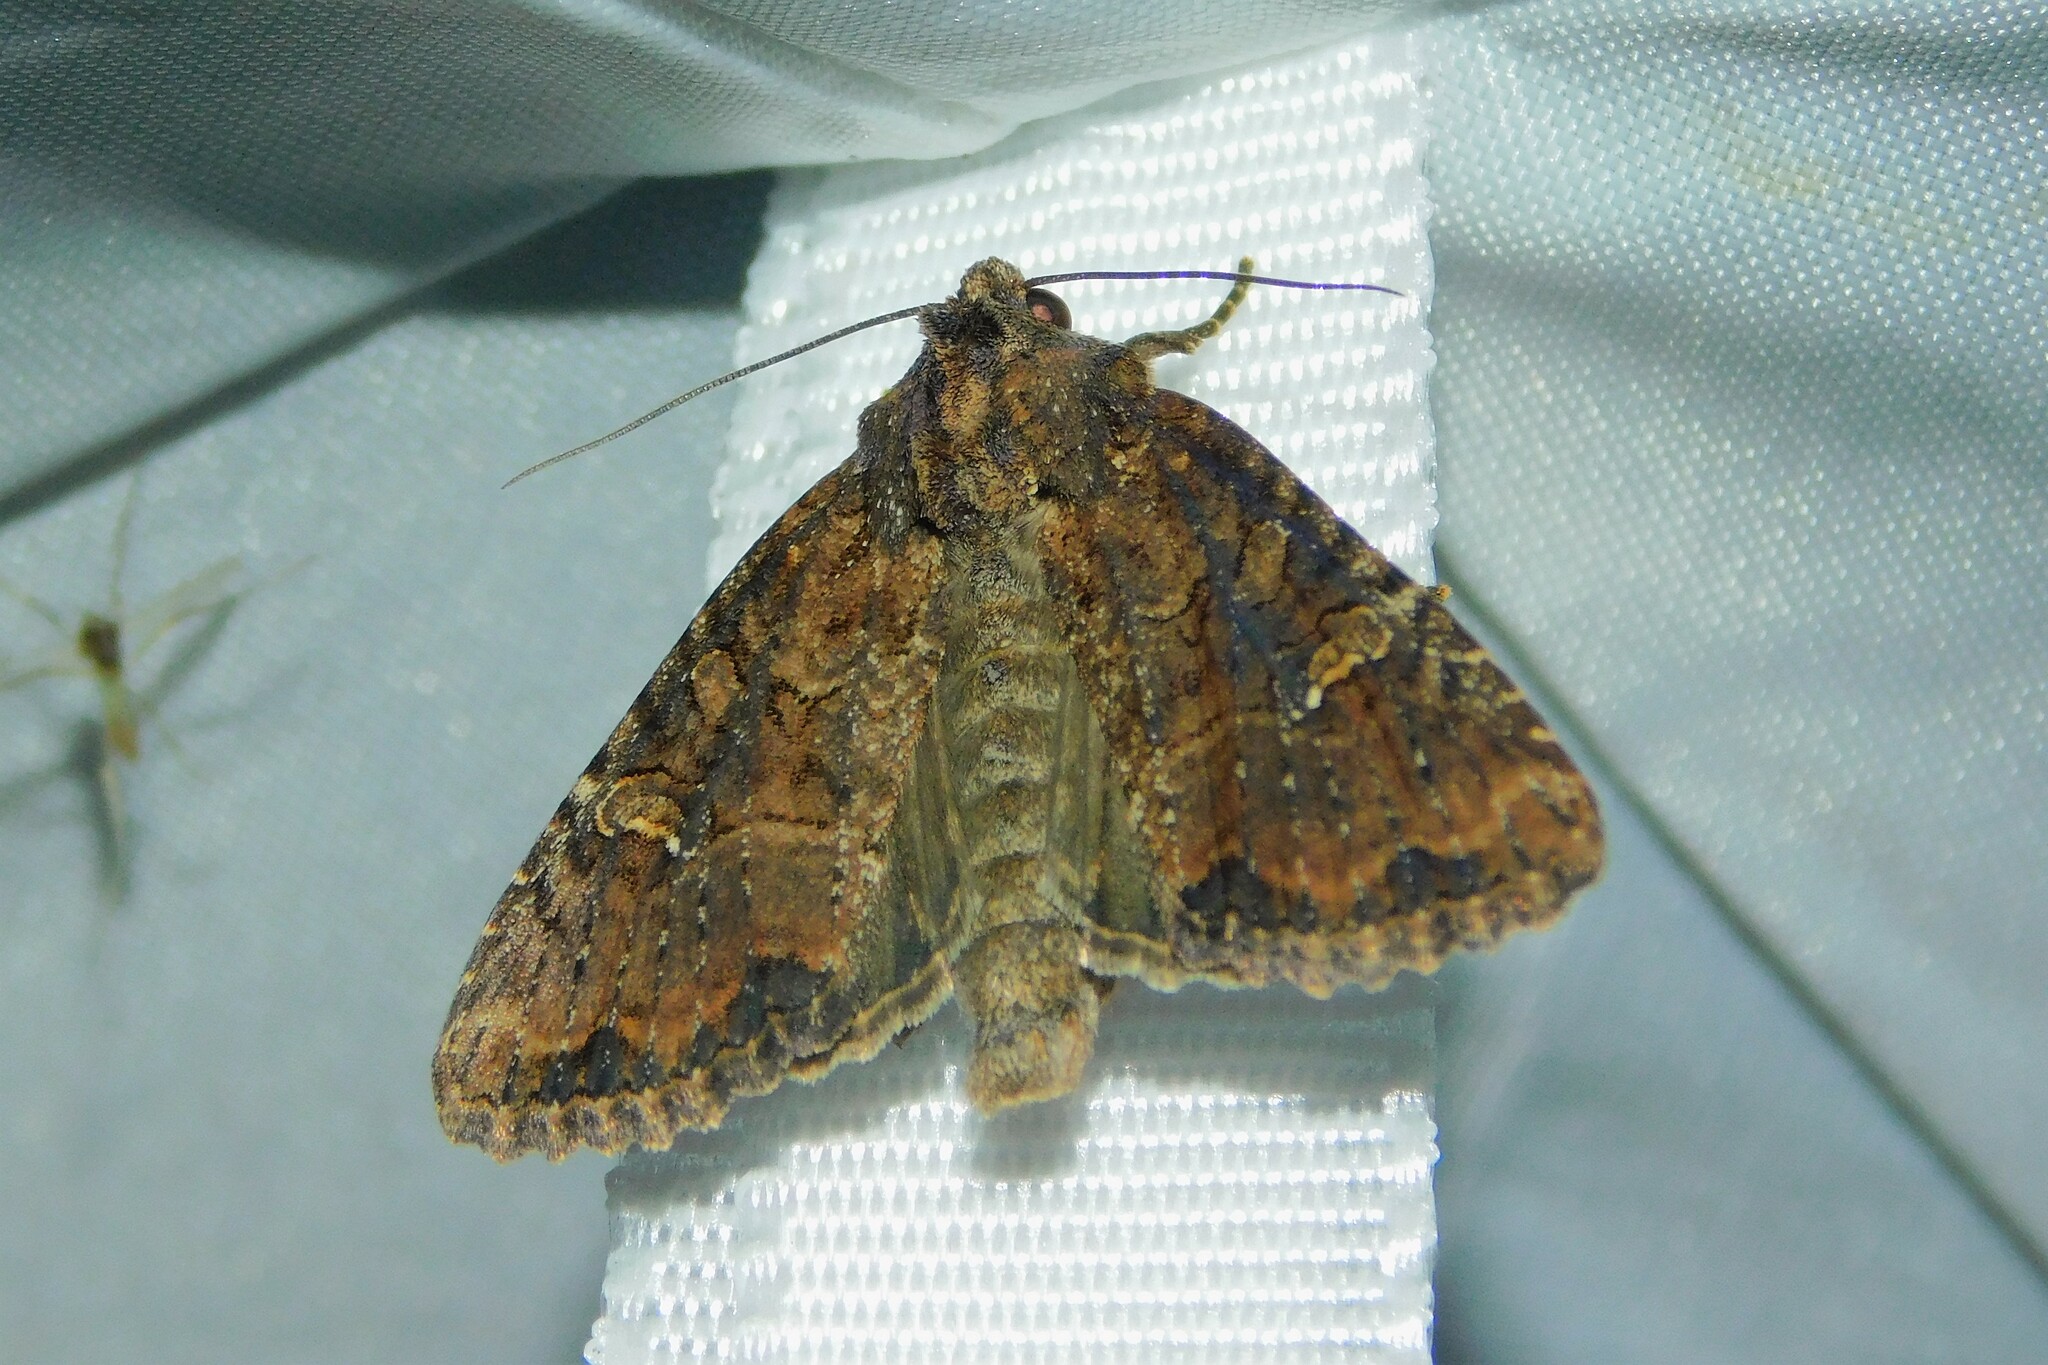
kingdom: Animalia
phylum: Arthropoda
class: Insecta
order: Lepidoptera
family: Noctuidae
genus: Mesapamea
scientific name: Mesapamea
